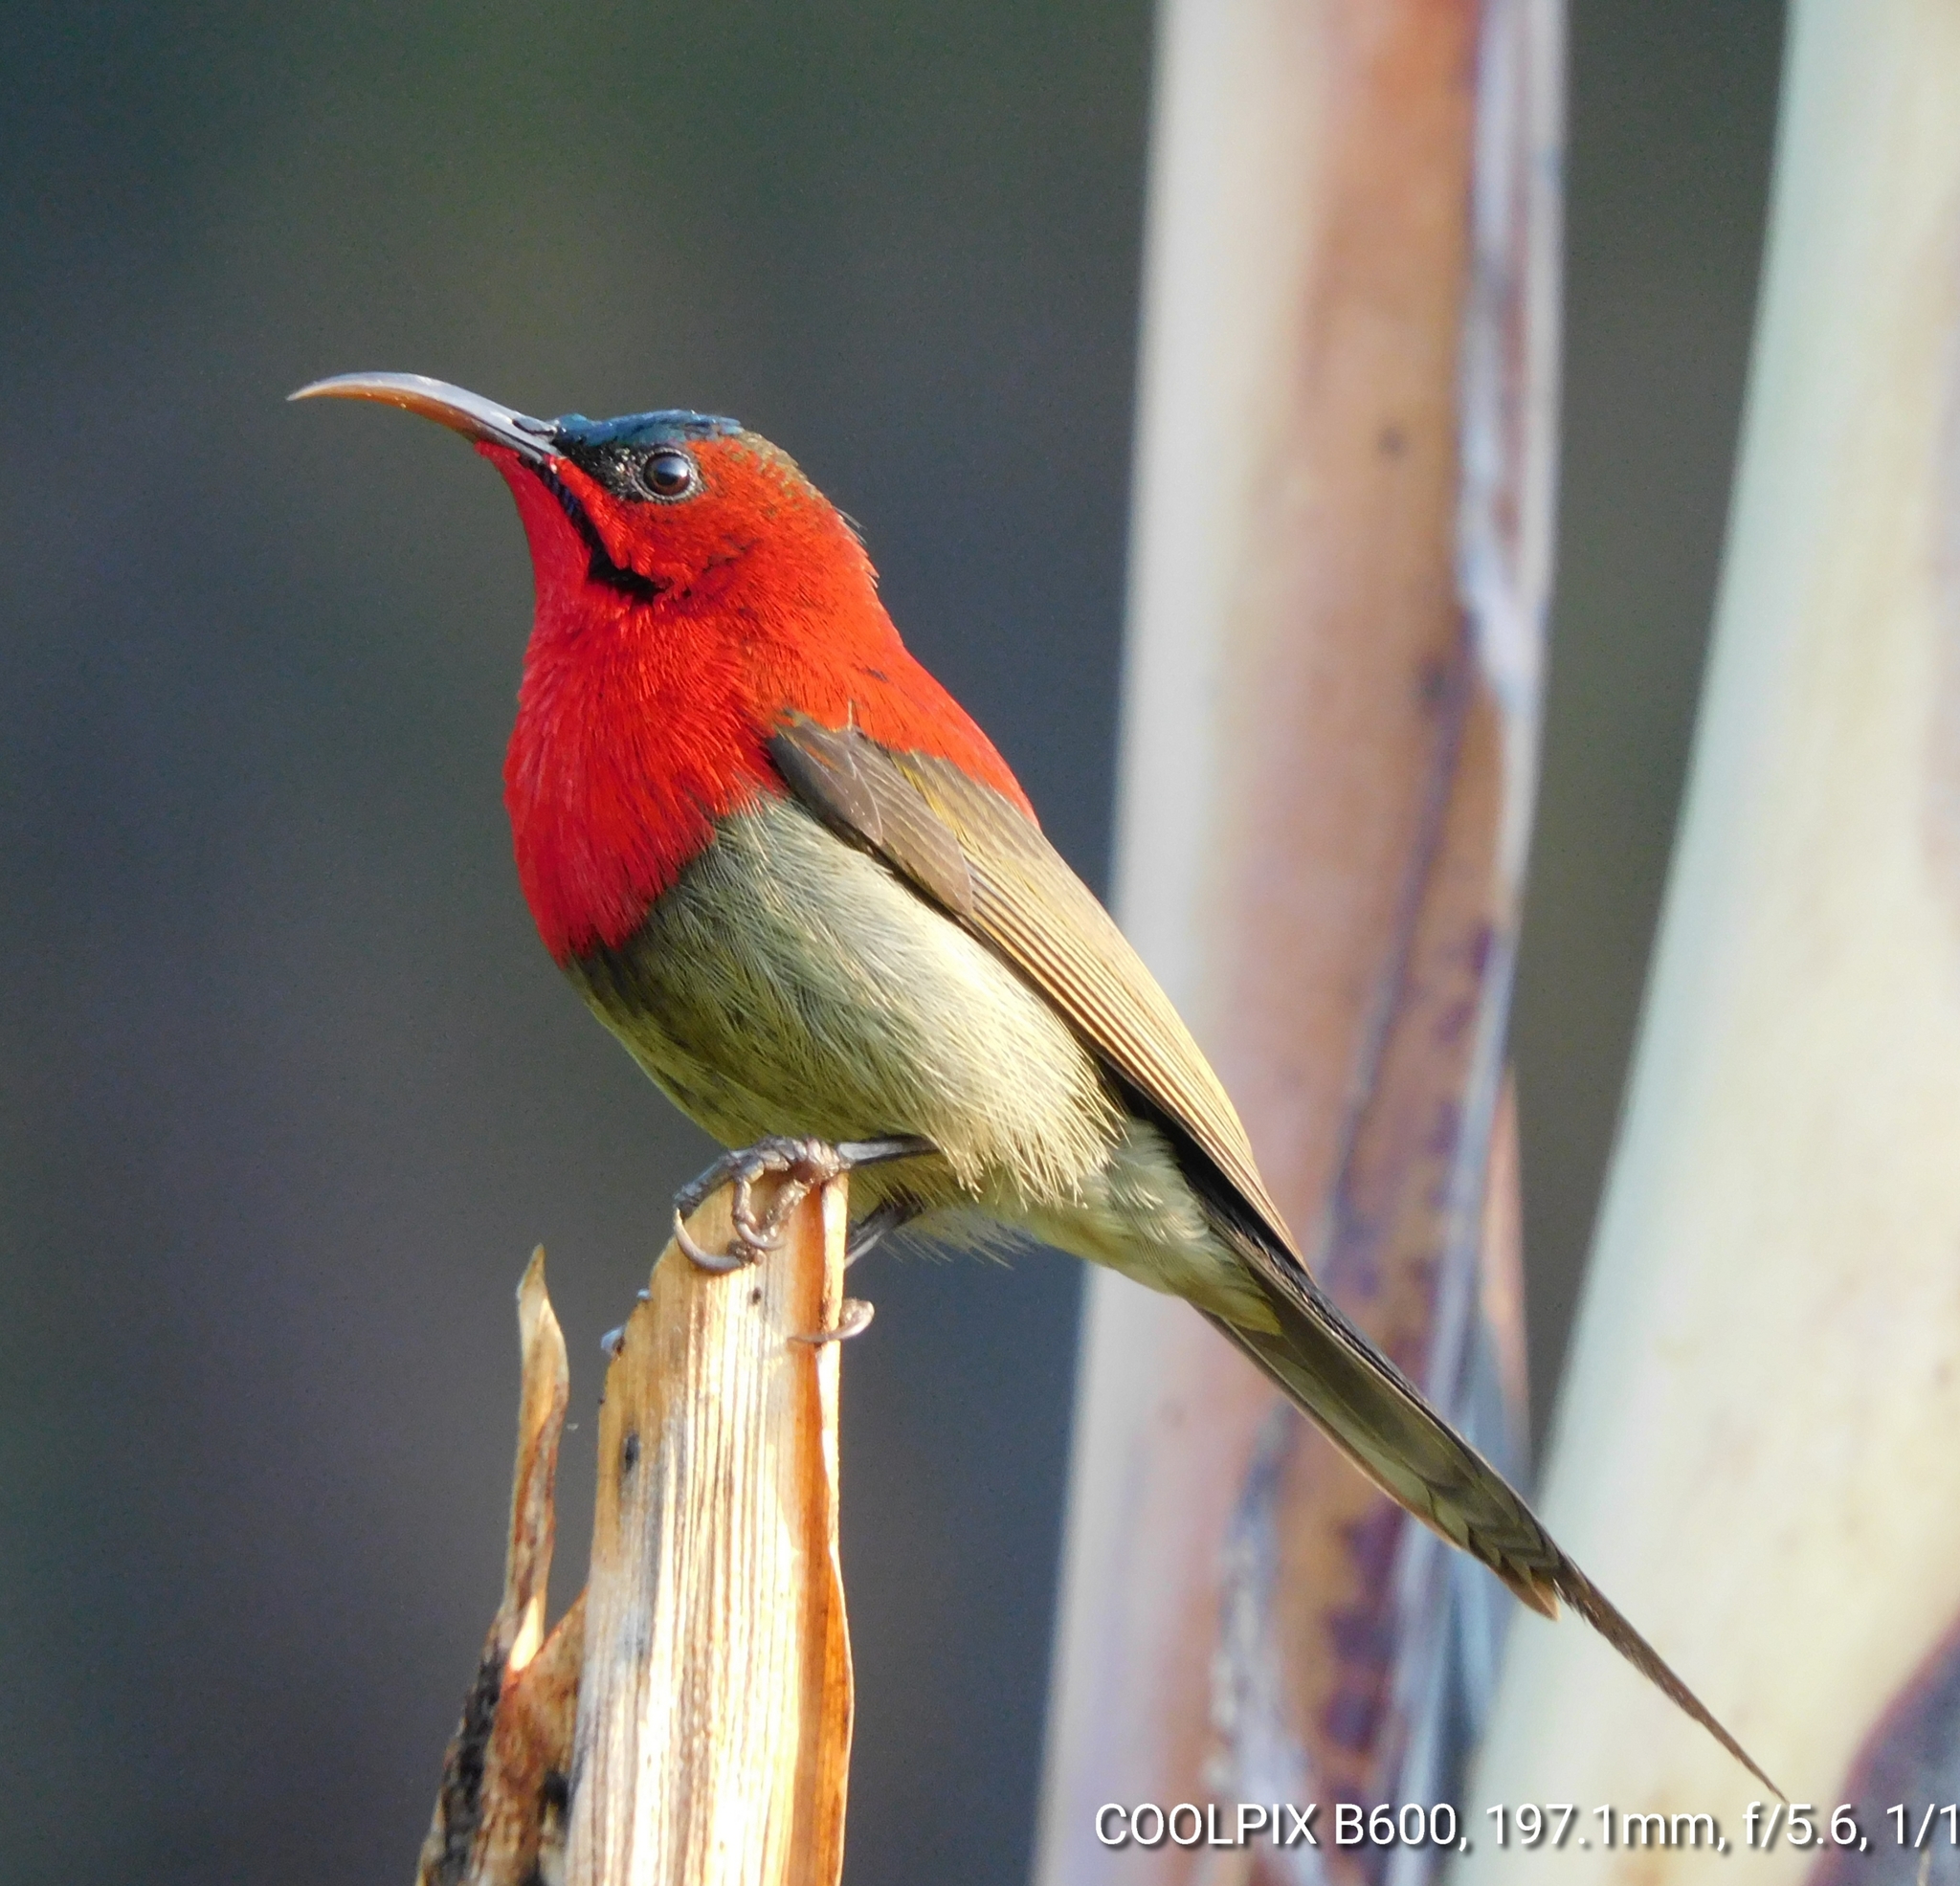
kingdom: Animalia
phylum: Chordata
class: Aves
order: Passeriformes
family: Nectariniidae
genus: Aethopyga
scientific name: Aethopyga siparaja
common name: Crimson sunbird
